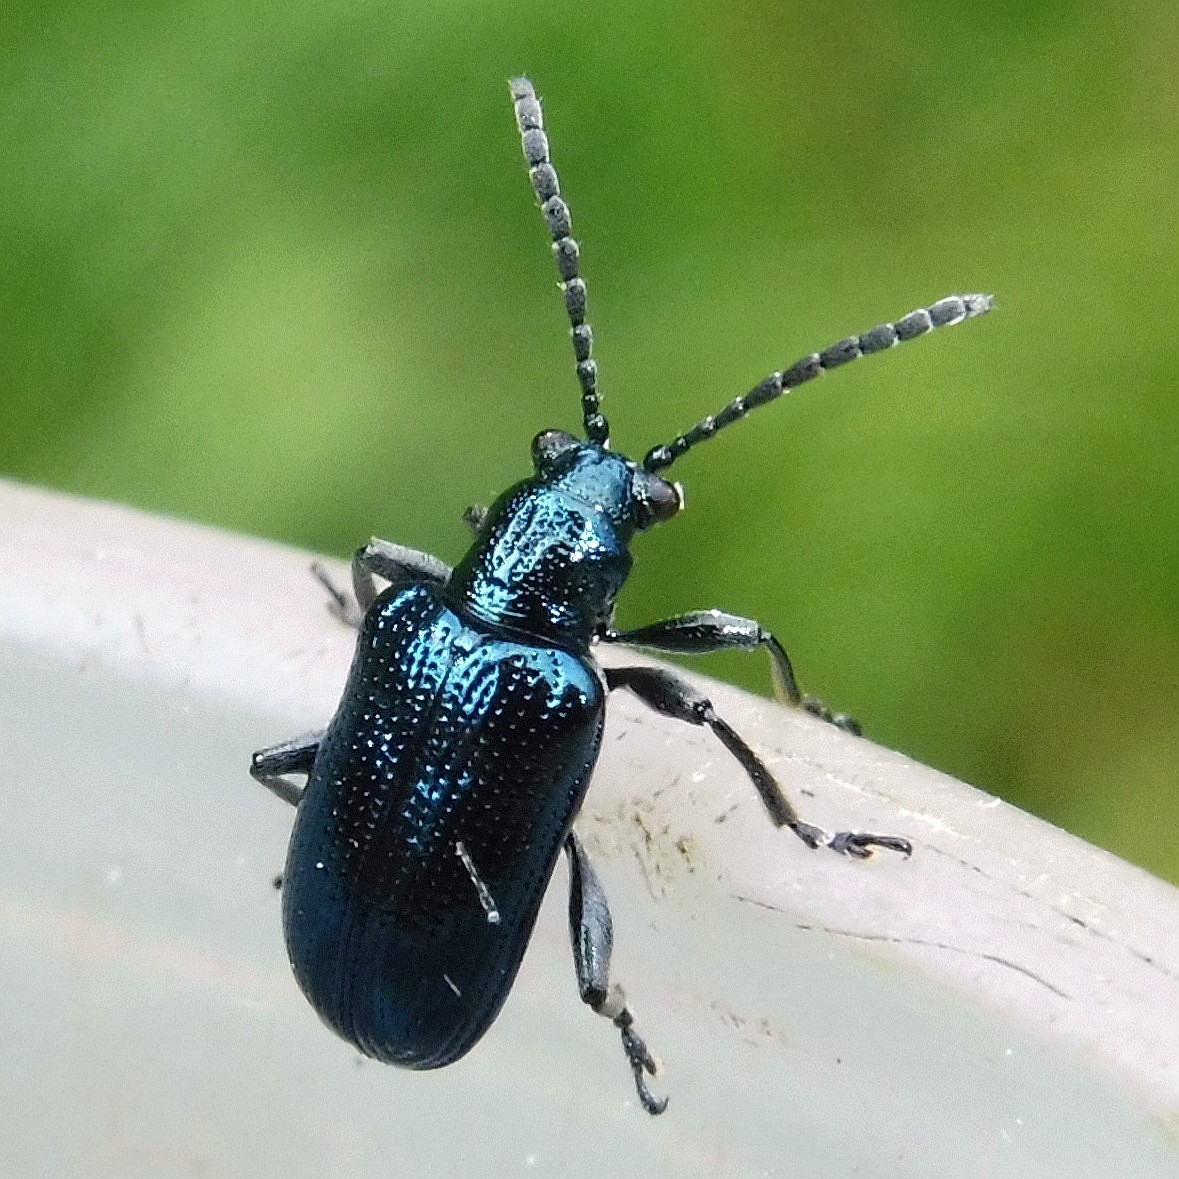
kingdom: Animalia
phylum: Arthropoda
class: Insecta
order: Coleoptera
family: Chrysomelidae
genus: Lema
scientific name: Lema cyanella
